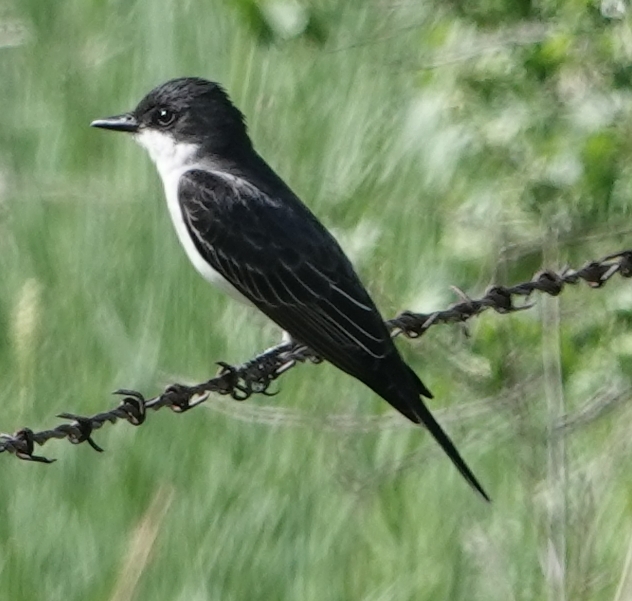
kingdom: Animalia
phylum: Chordata
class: Aves
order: Passeriformes
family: Tyrannidae
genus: Tyrannus
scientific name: Tyrannus tyrannus
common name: Eastern kingbird
